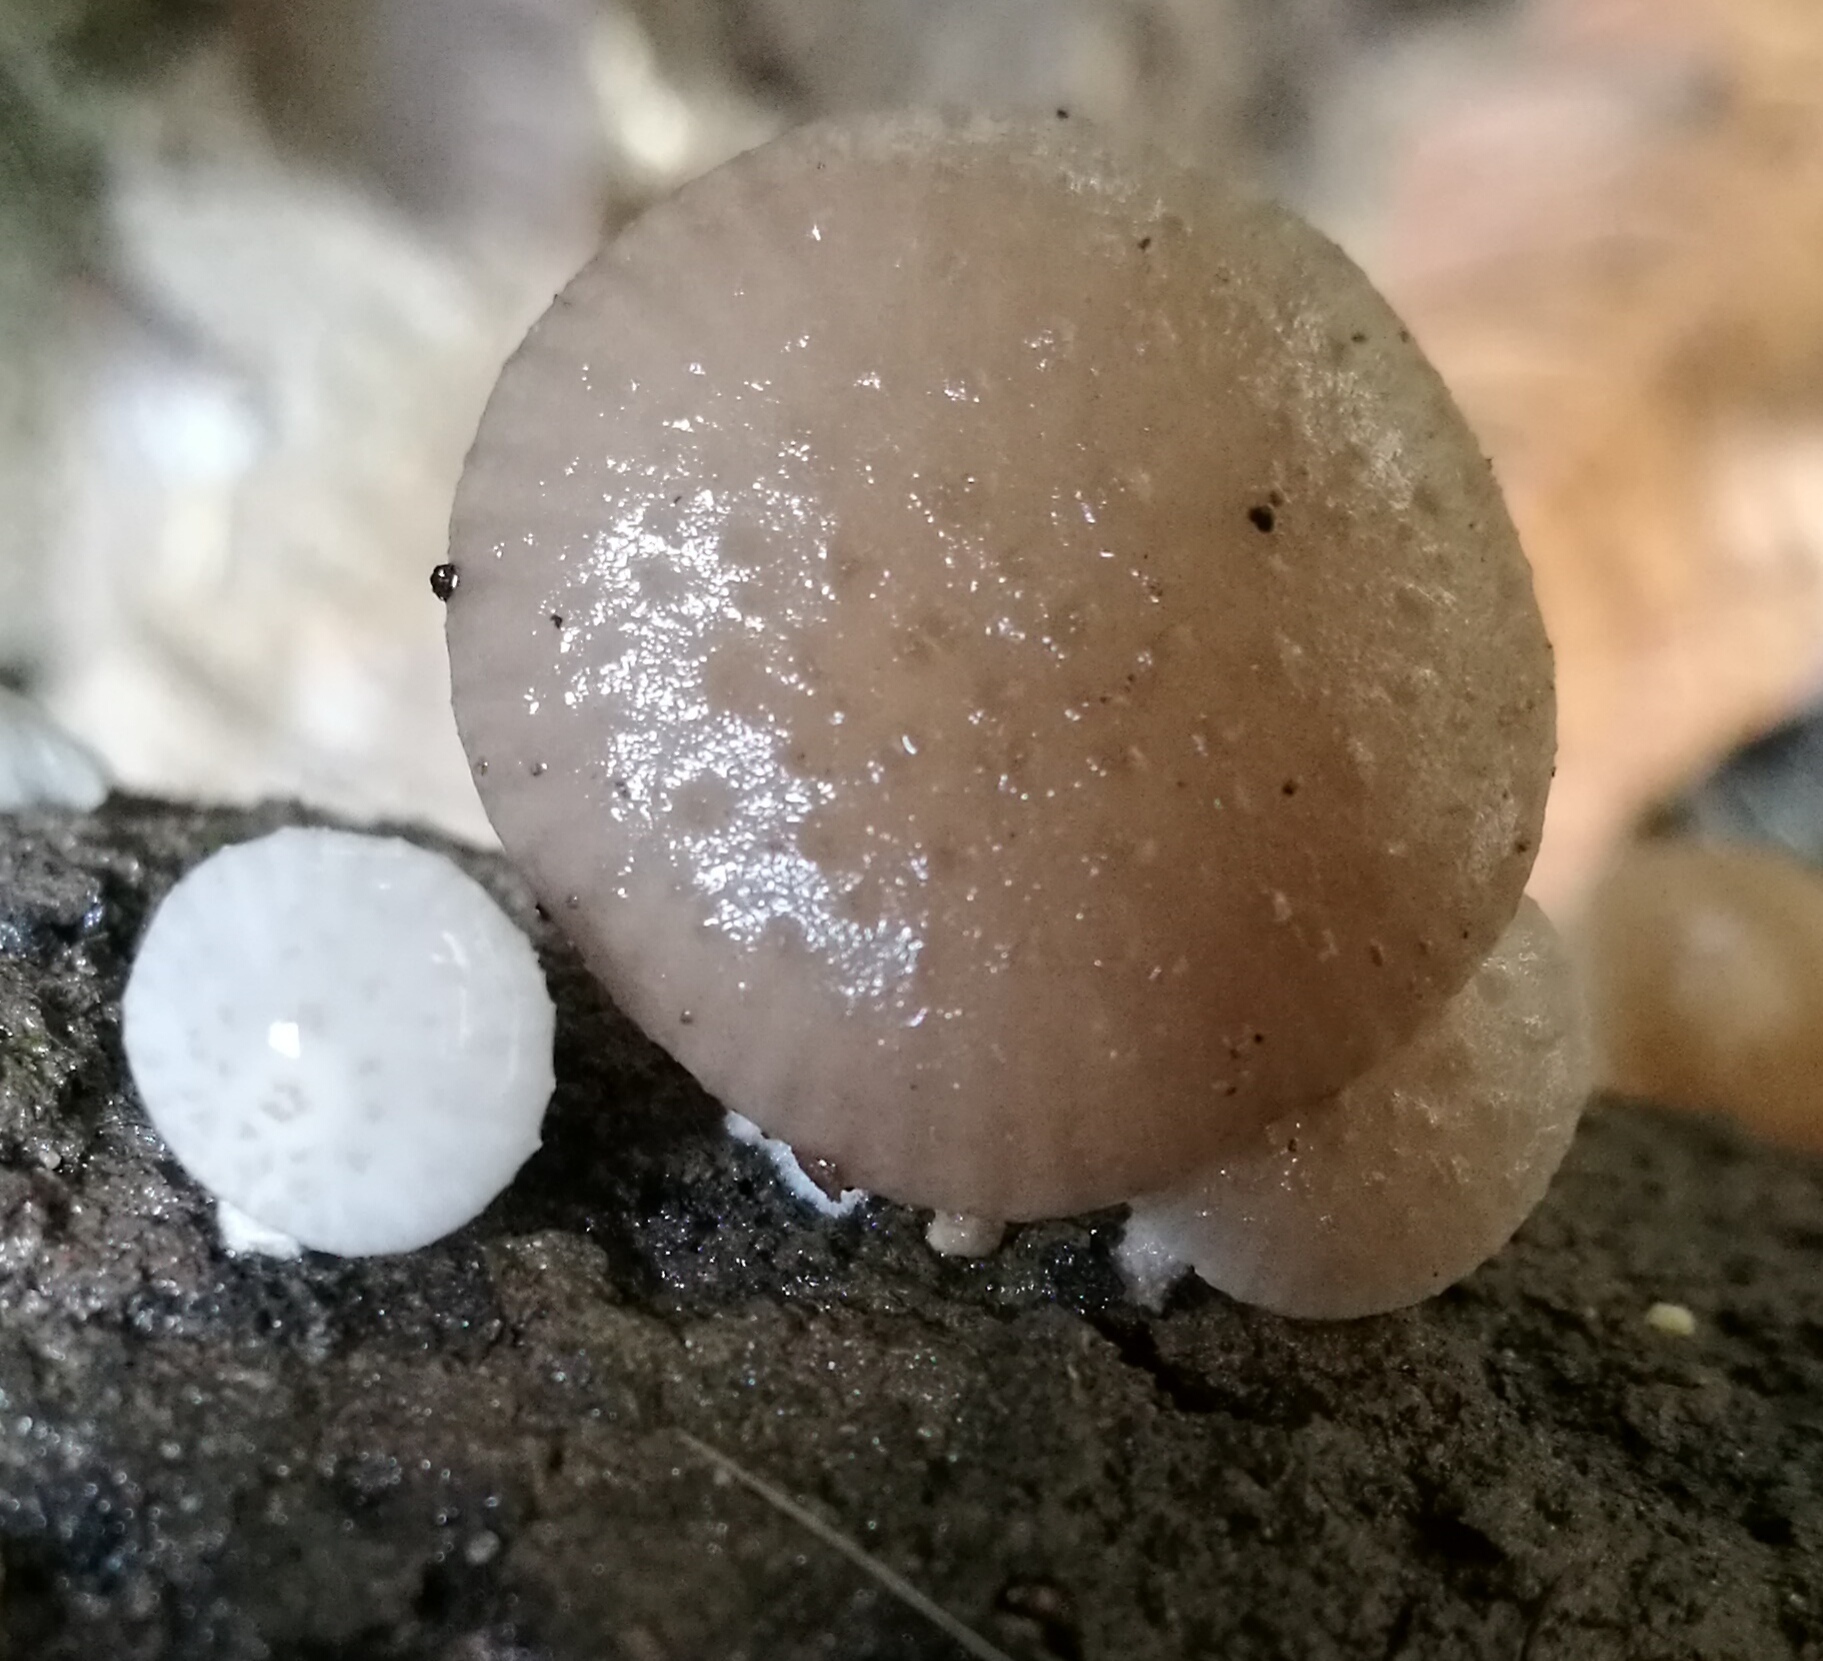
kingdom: Fungi
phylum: Basidiomycota
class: Agaricomycetes
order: Agaricales
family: Physalacriaceae
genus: Oudemansiella
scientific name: Oudemansiella canarii
